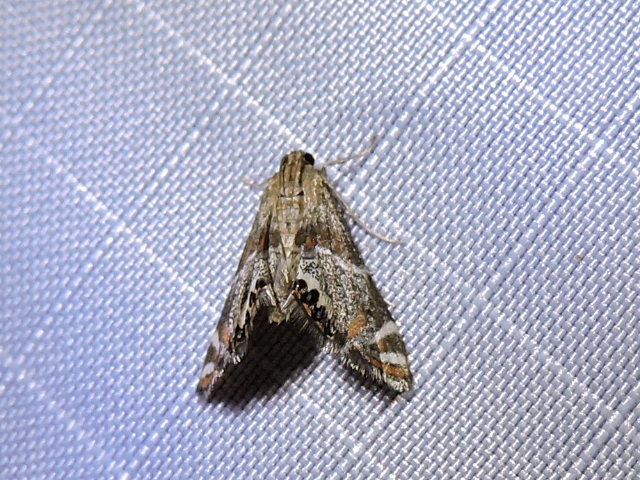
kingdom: Animalia
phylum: Arthropoda
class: Insecta
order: Lepidoptera
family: Crambidae
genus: Petrophila
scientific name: Petrophila jaliscalis
